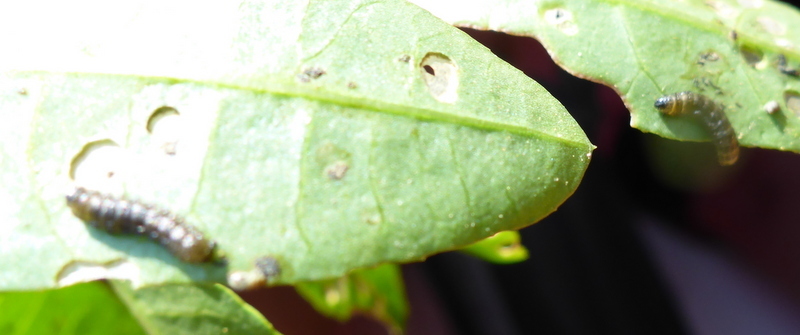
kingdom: Animalia
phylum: Arthropoda
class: Insecta
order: Coleoptera
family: Chrysomelidae
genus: Agasicles
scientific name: Agasicles hygrophila
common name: Alligatorweed flea beetle
